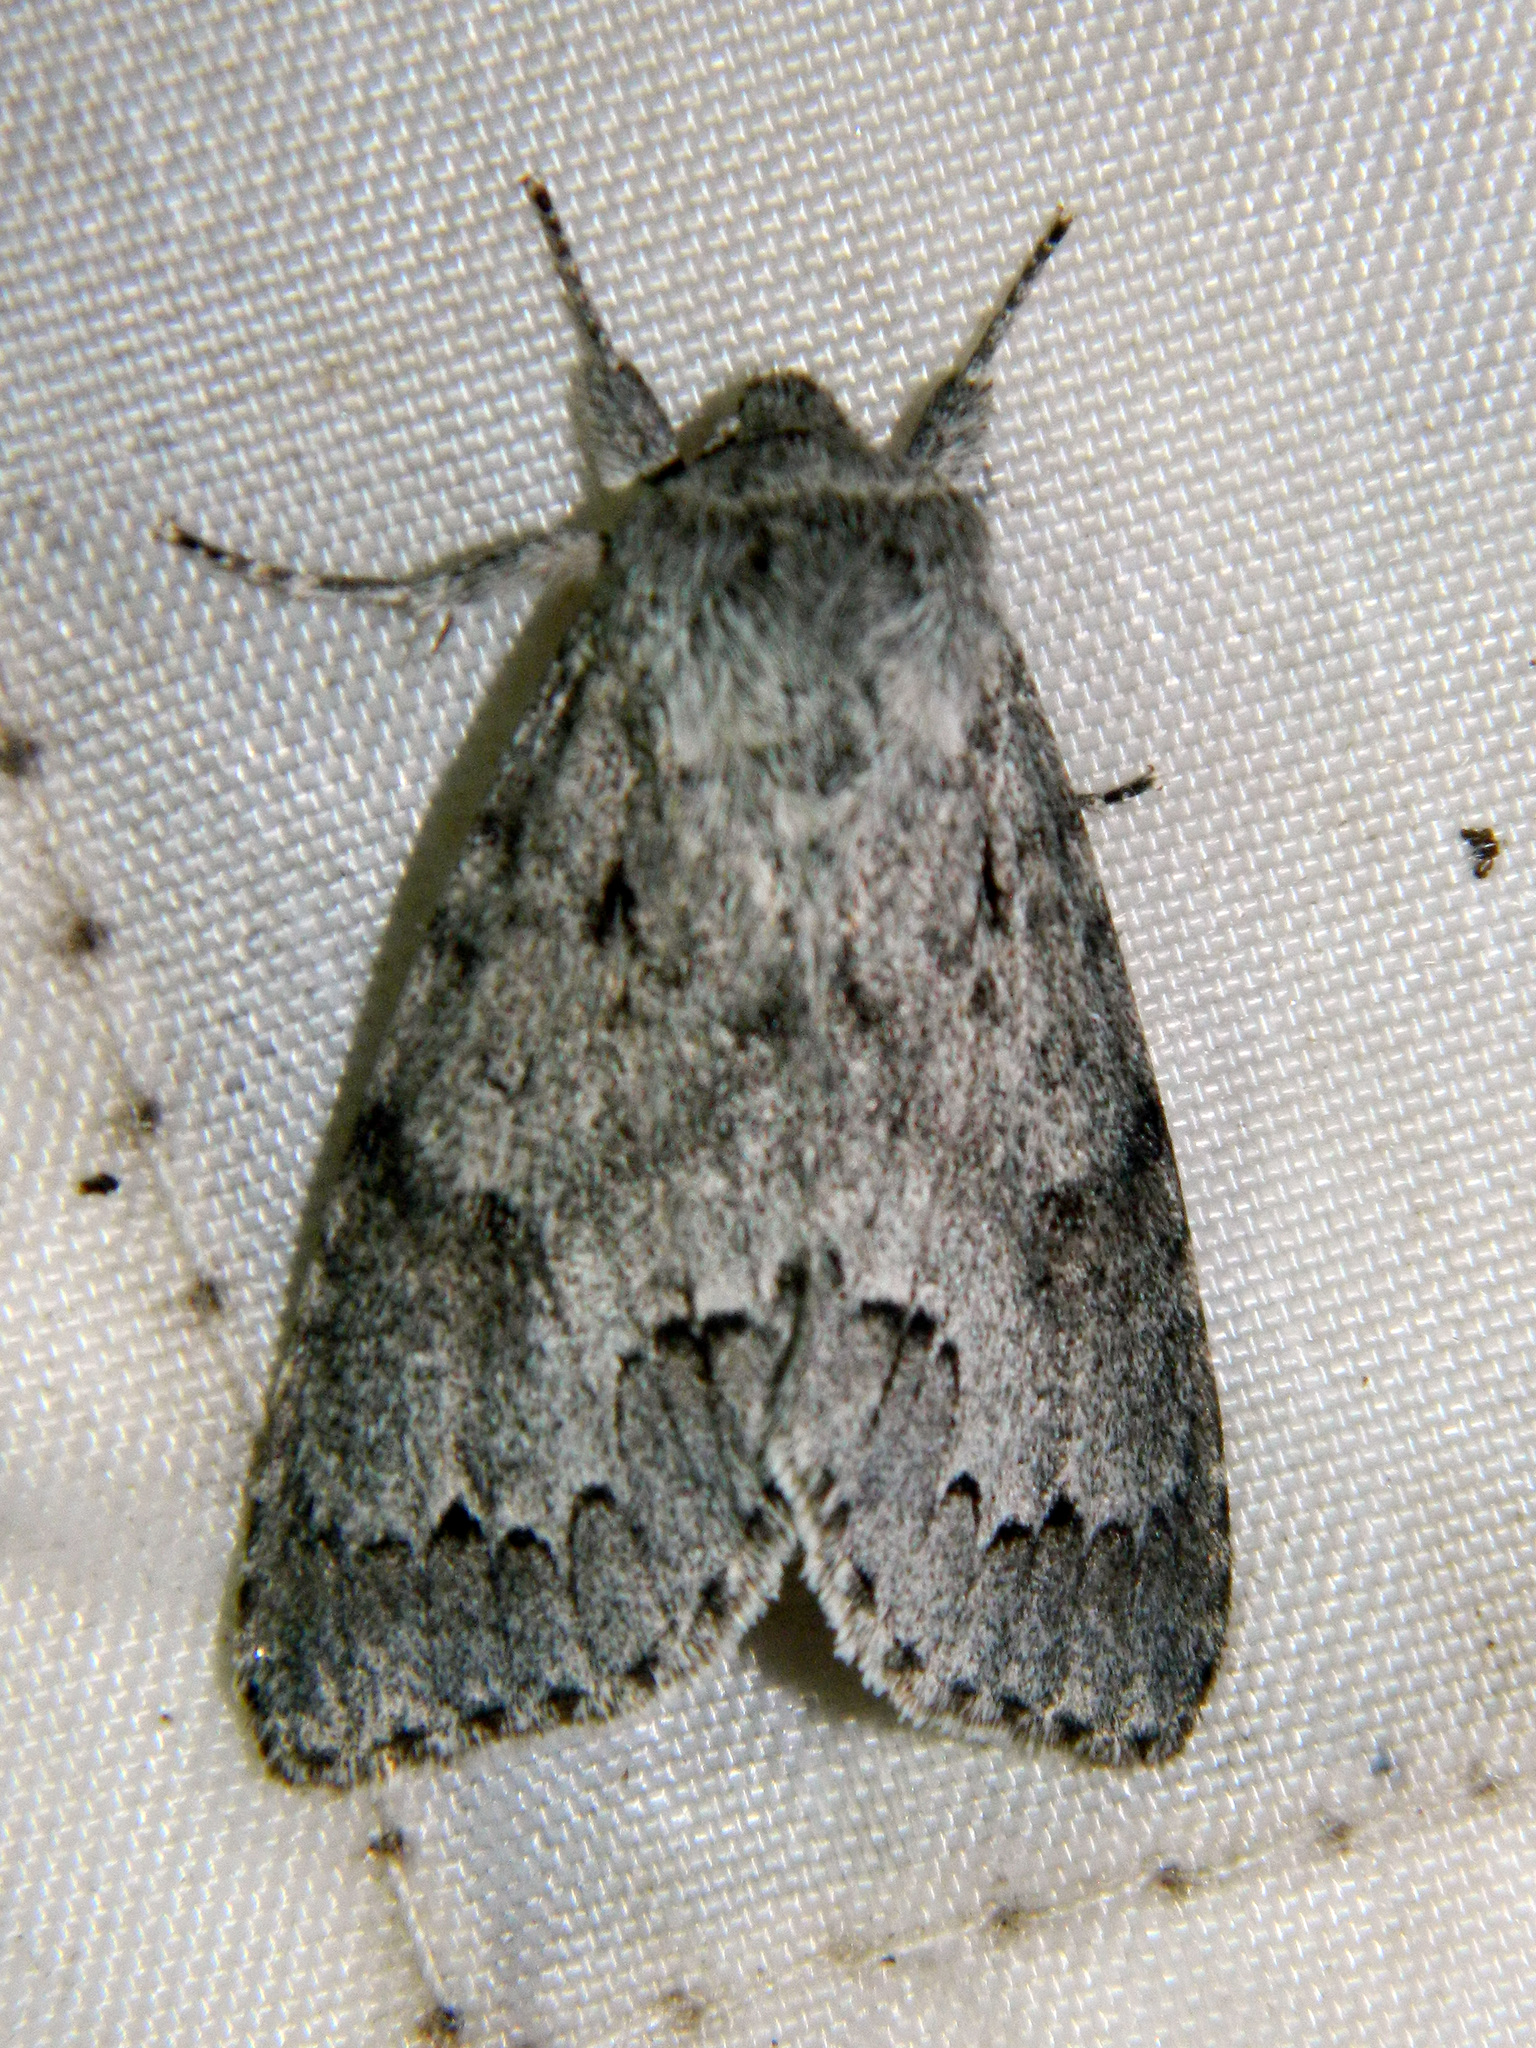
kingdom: Animalia
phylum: Arthropoda
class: Insecta
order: Lepidoptera
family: Noctuidae
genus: Acronicta
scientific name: Acronicta insita
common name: Large gray dagger
